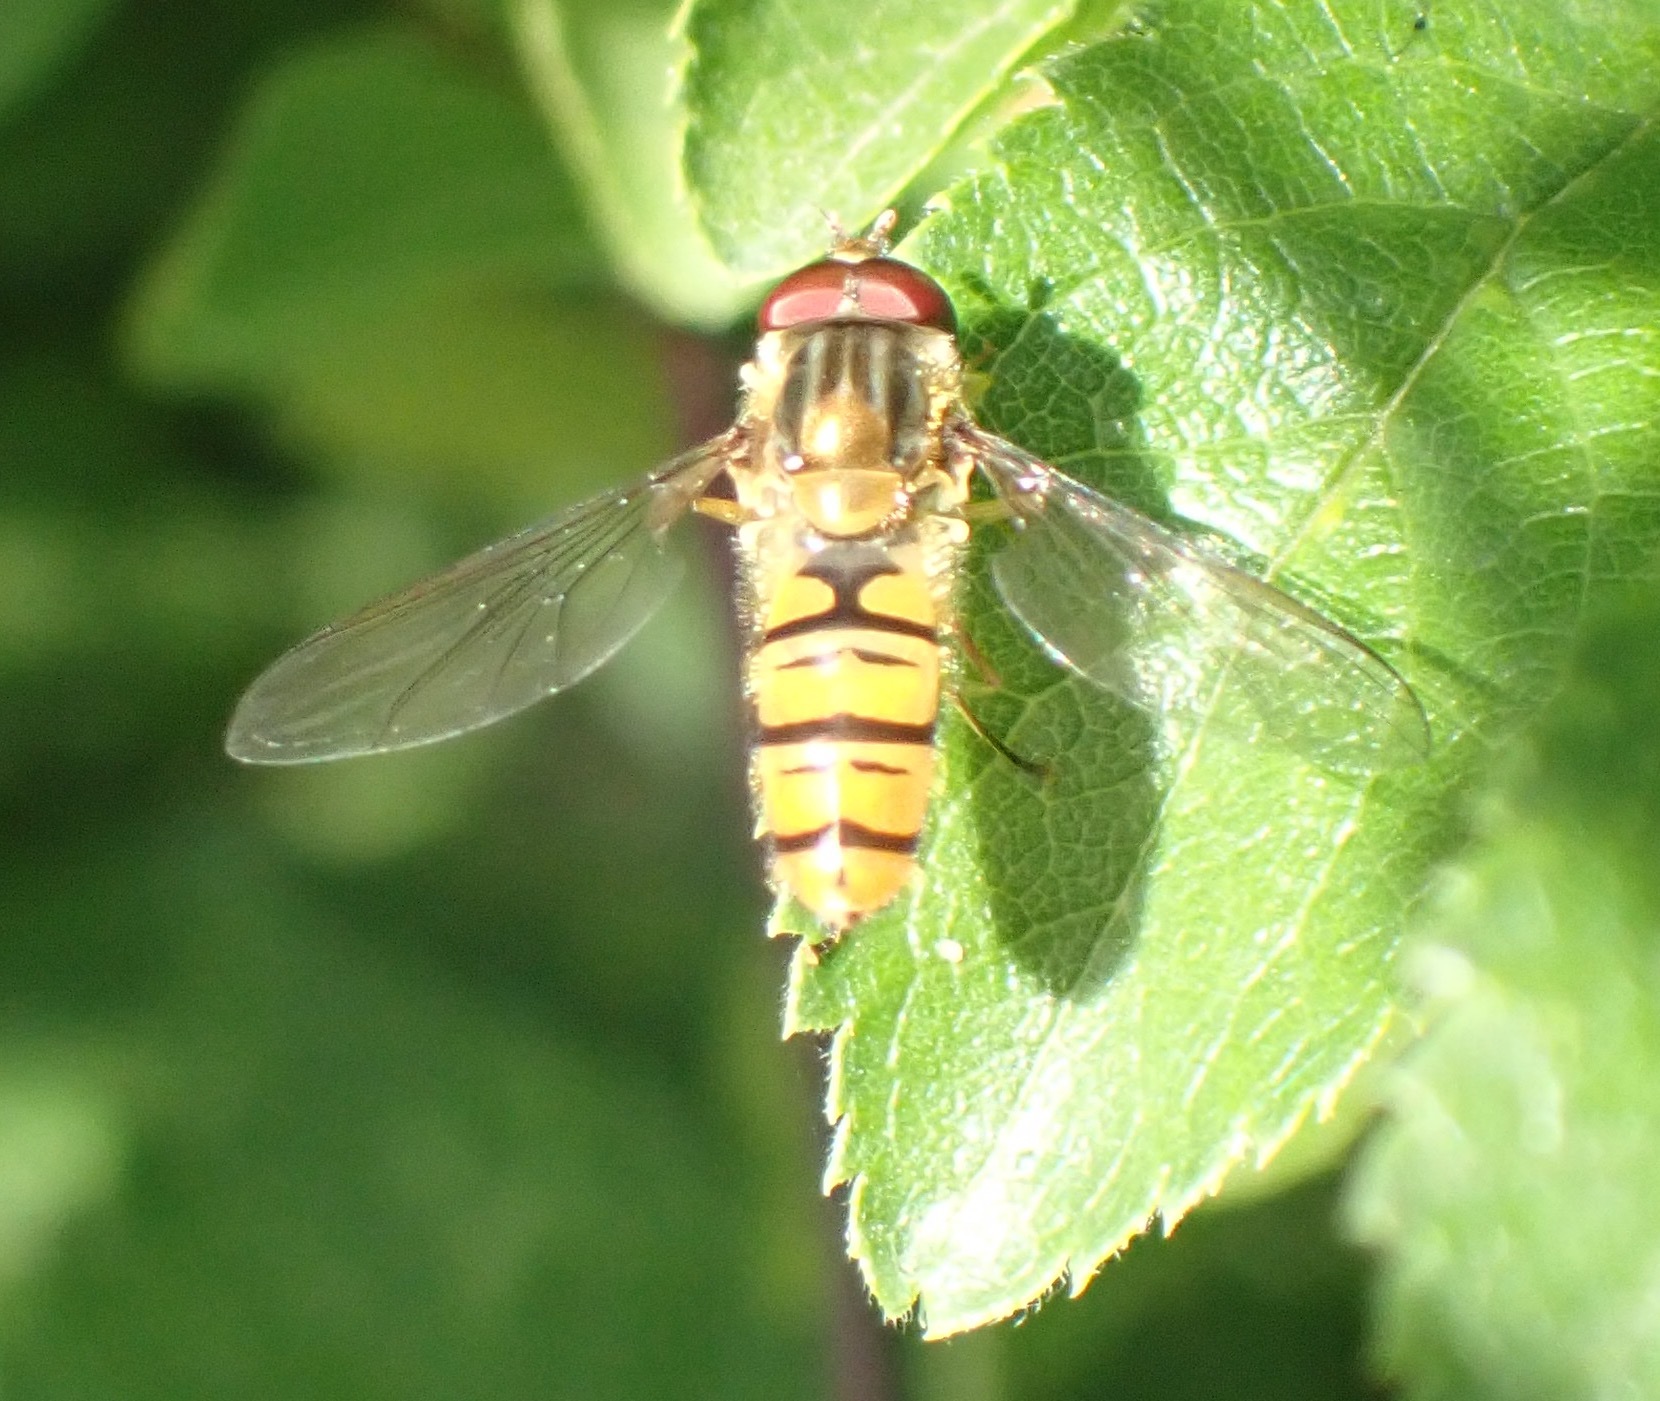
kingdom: Animalia
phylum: Arthropoda
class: Insecta
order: Diptera
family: Syrphidae
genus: Episyrphus
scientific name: Episyrphus balteatus
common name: Marmalade hoverfly
